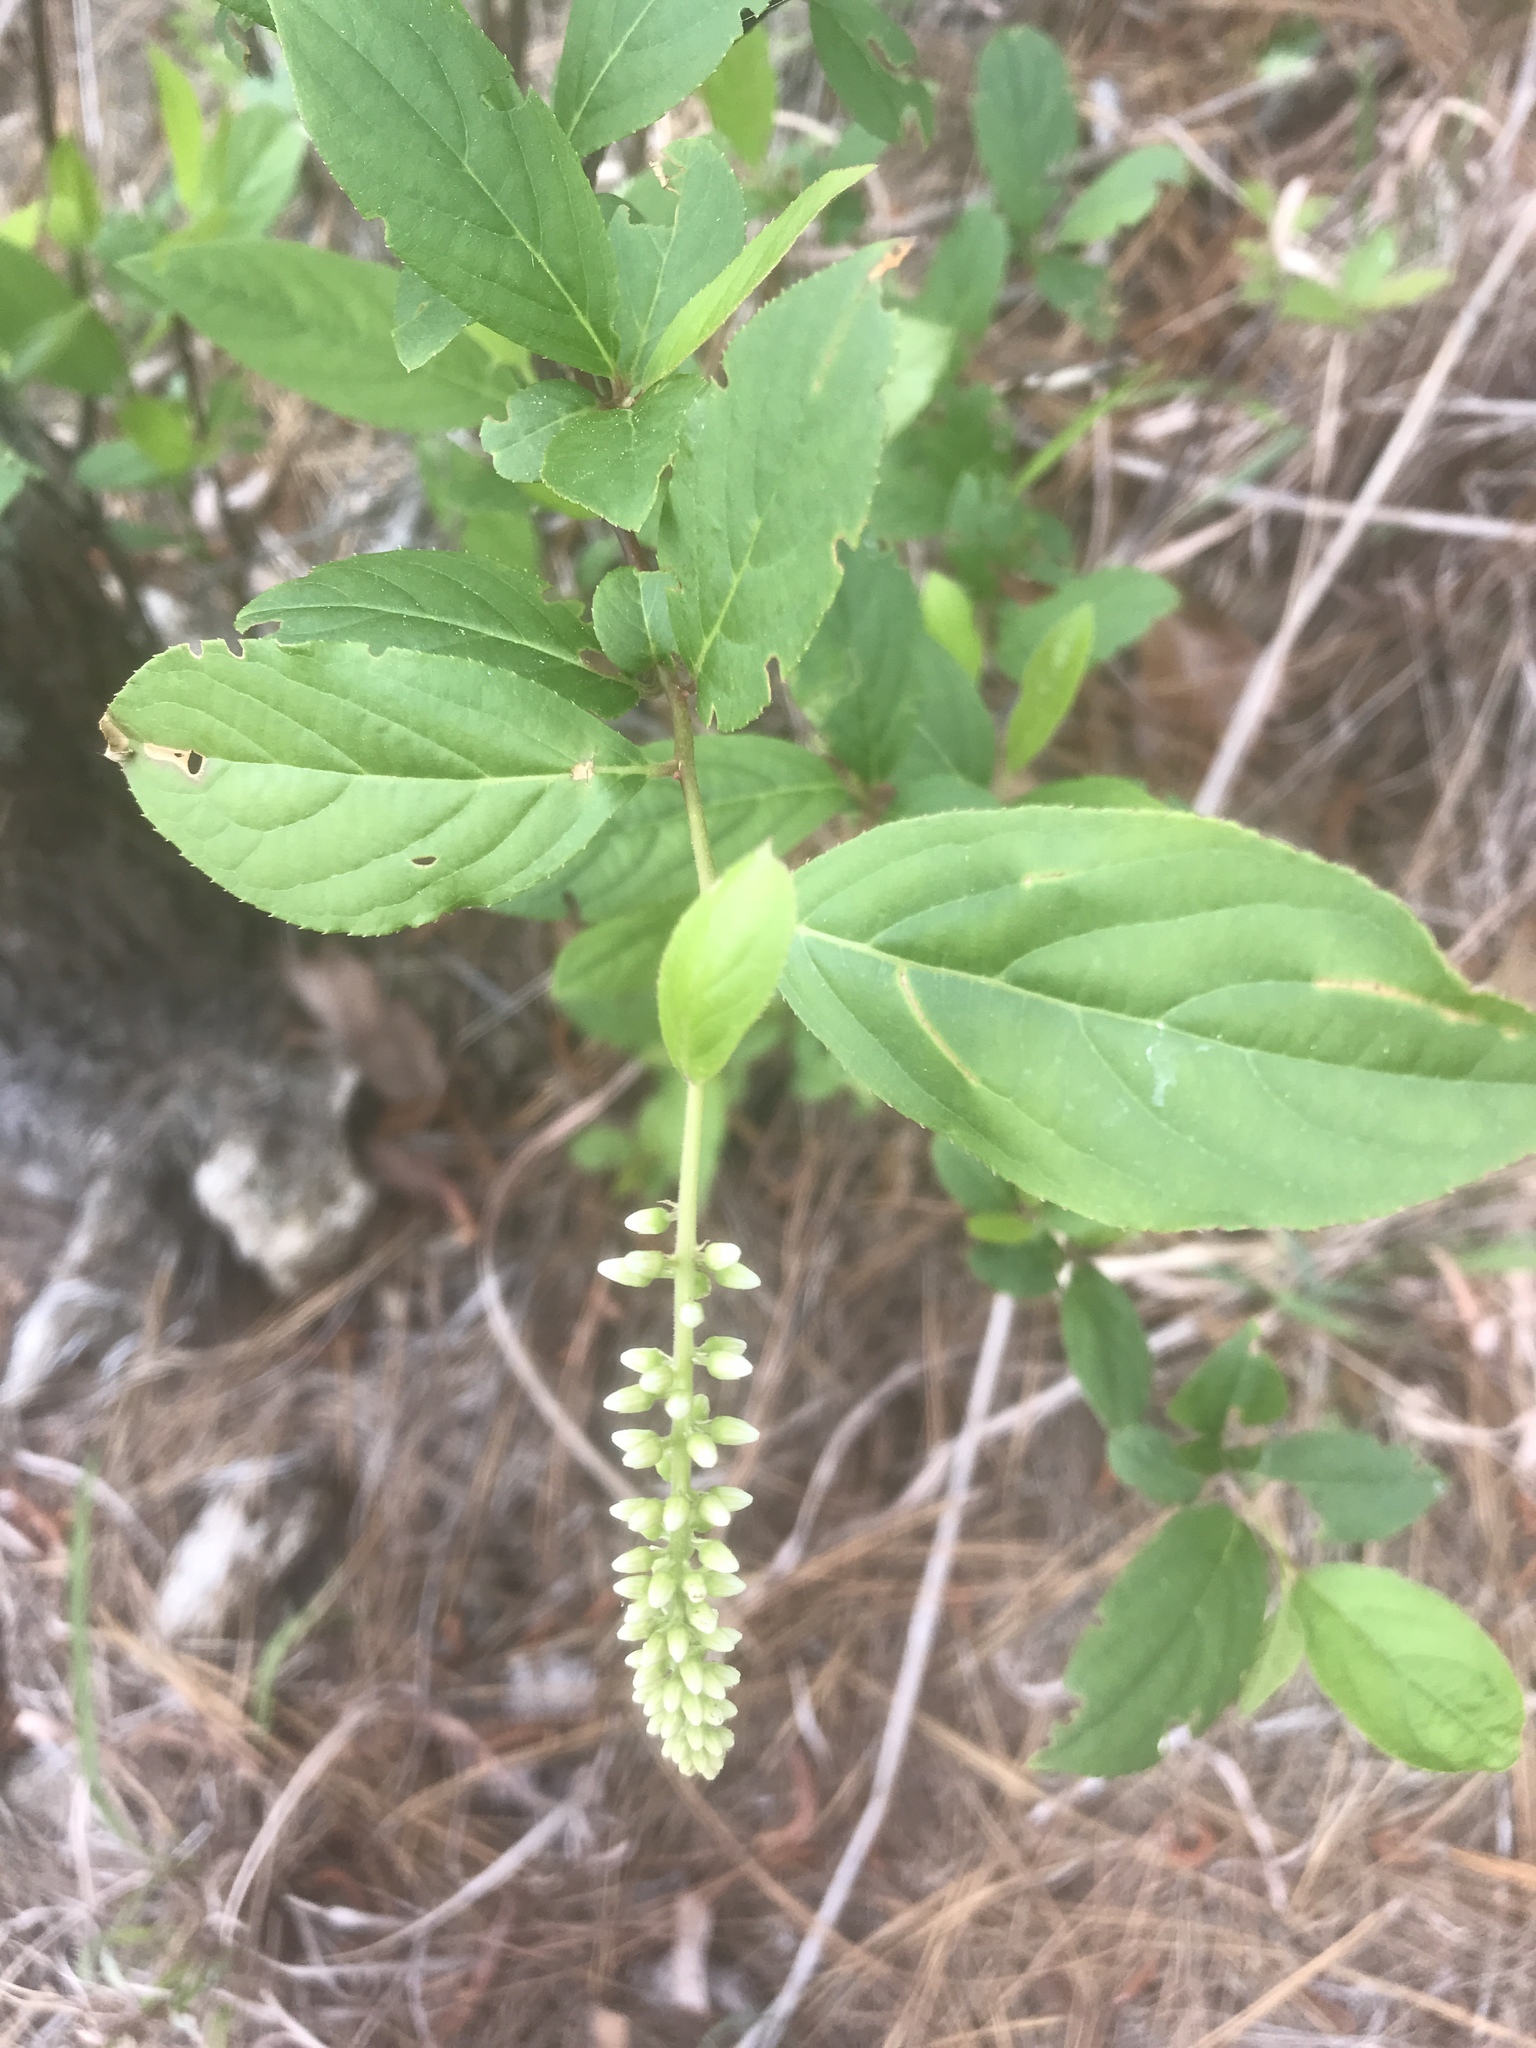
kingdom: Plantae
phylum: Tracheophyta
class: Magnoliopsida
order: Saxifragales
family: Iteaceae
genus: Itea
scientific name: Itea virginica
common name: Sweetspire
